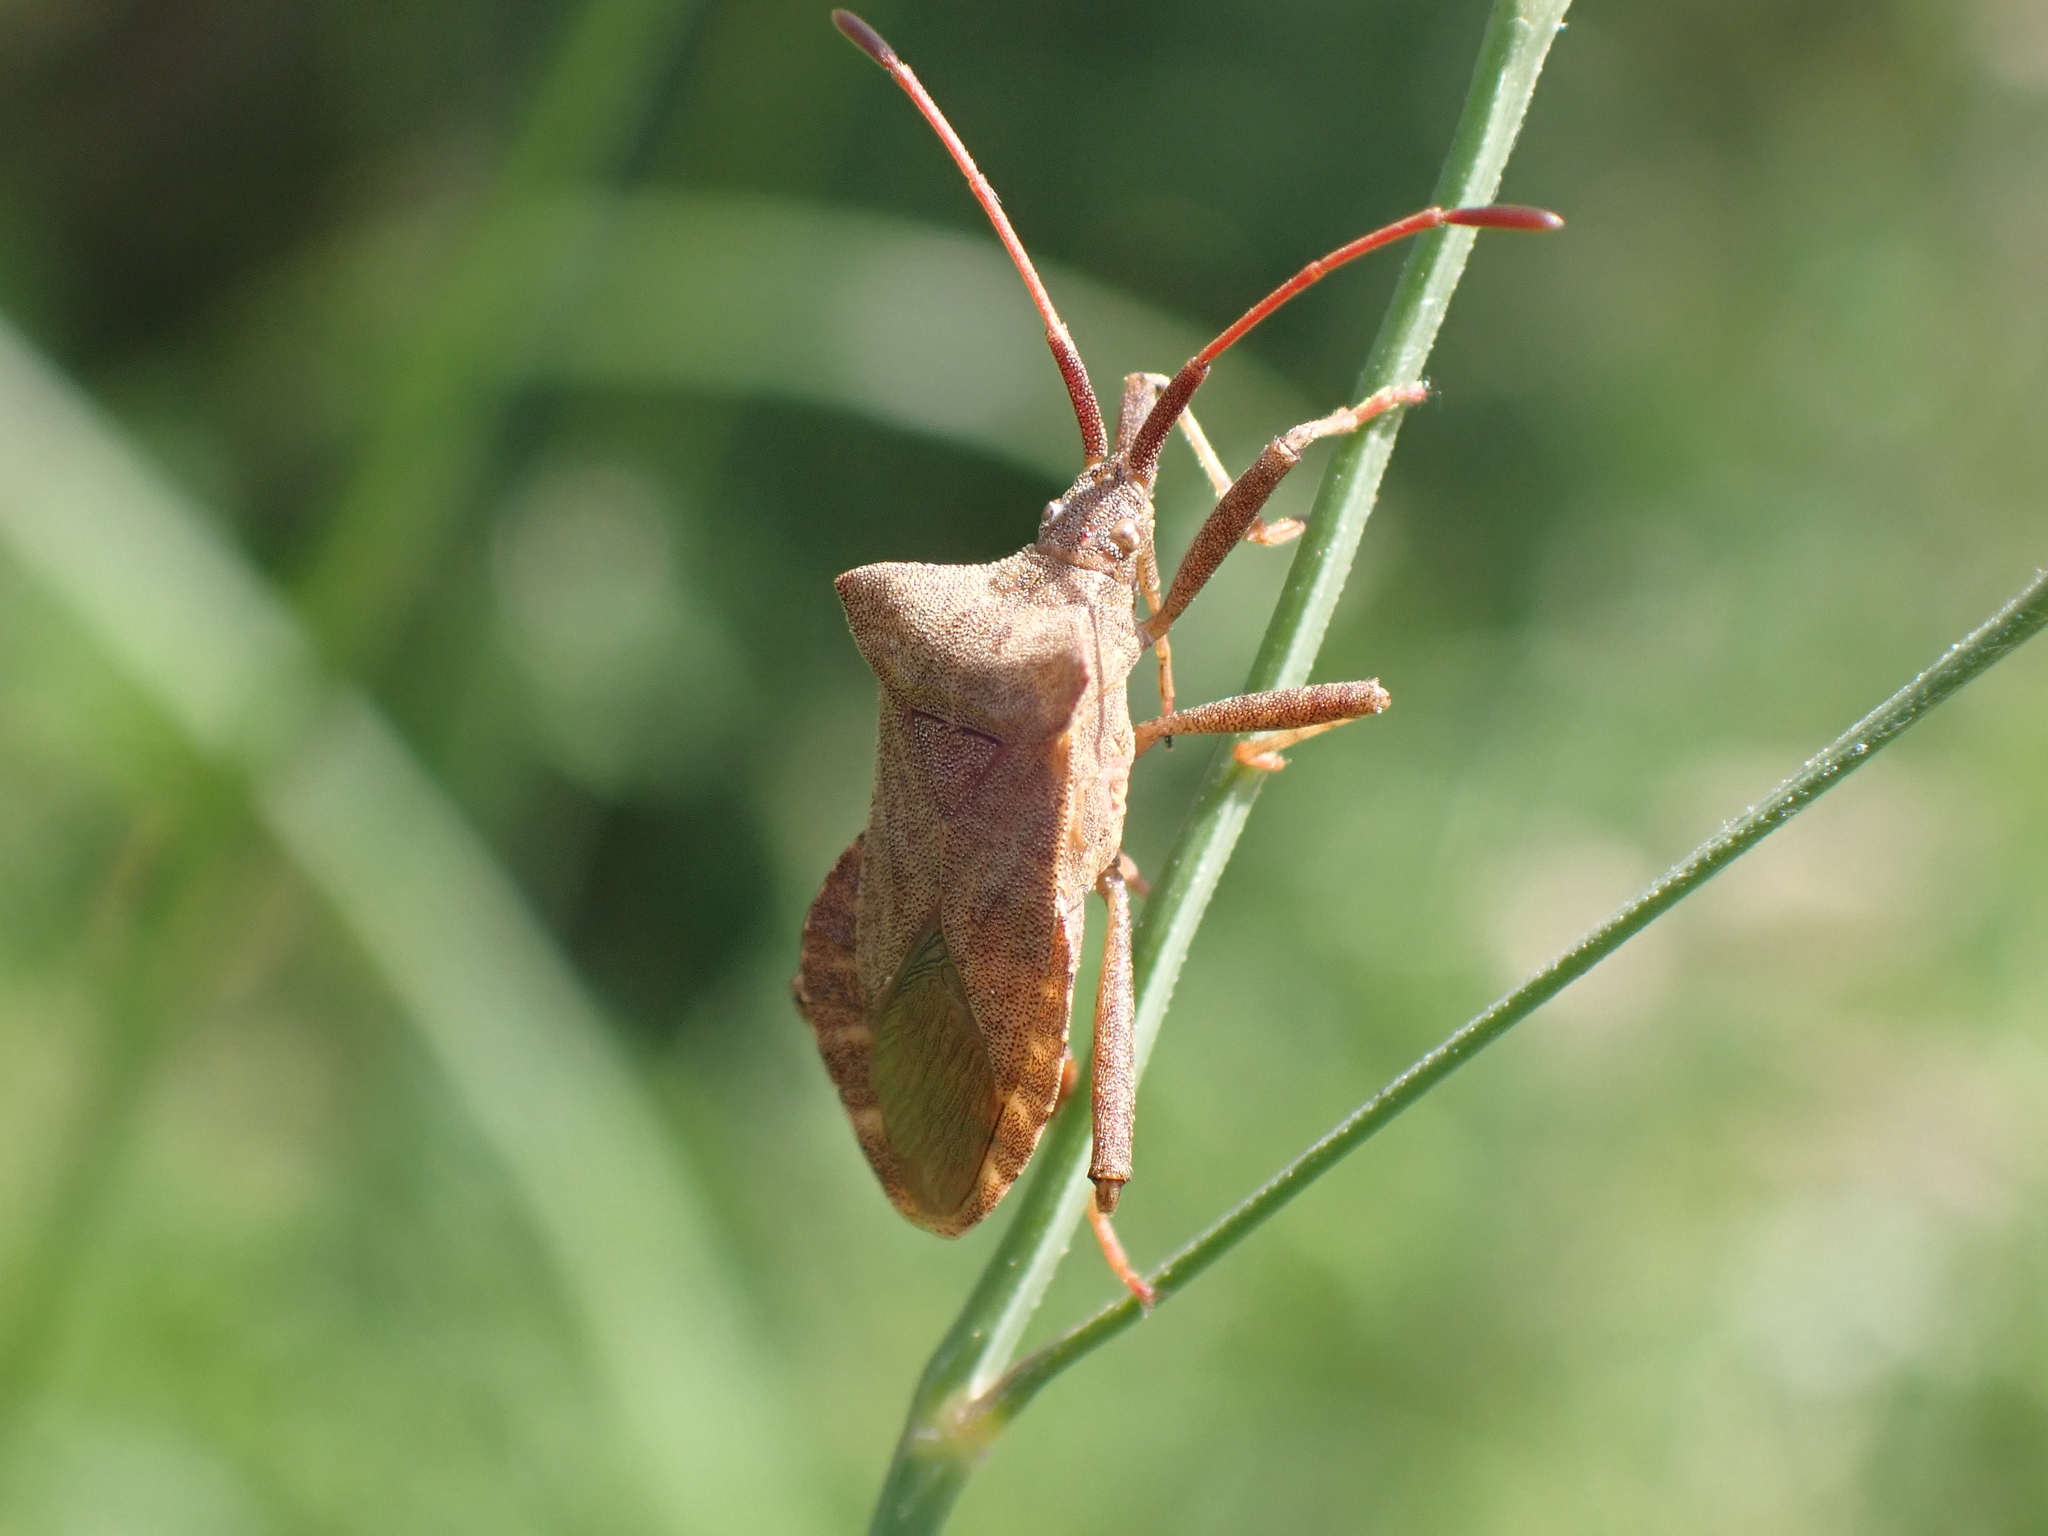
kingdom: Animalia
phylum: Arthropoda
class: Insecta
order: Hemiptera
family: Coreidae
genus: Coreus
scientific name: Coreus marginatus
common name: Dock bug
